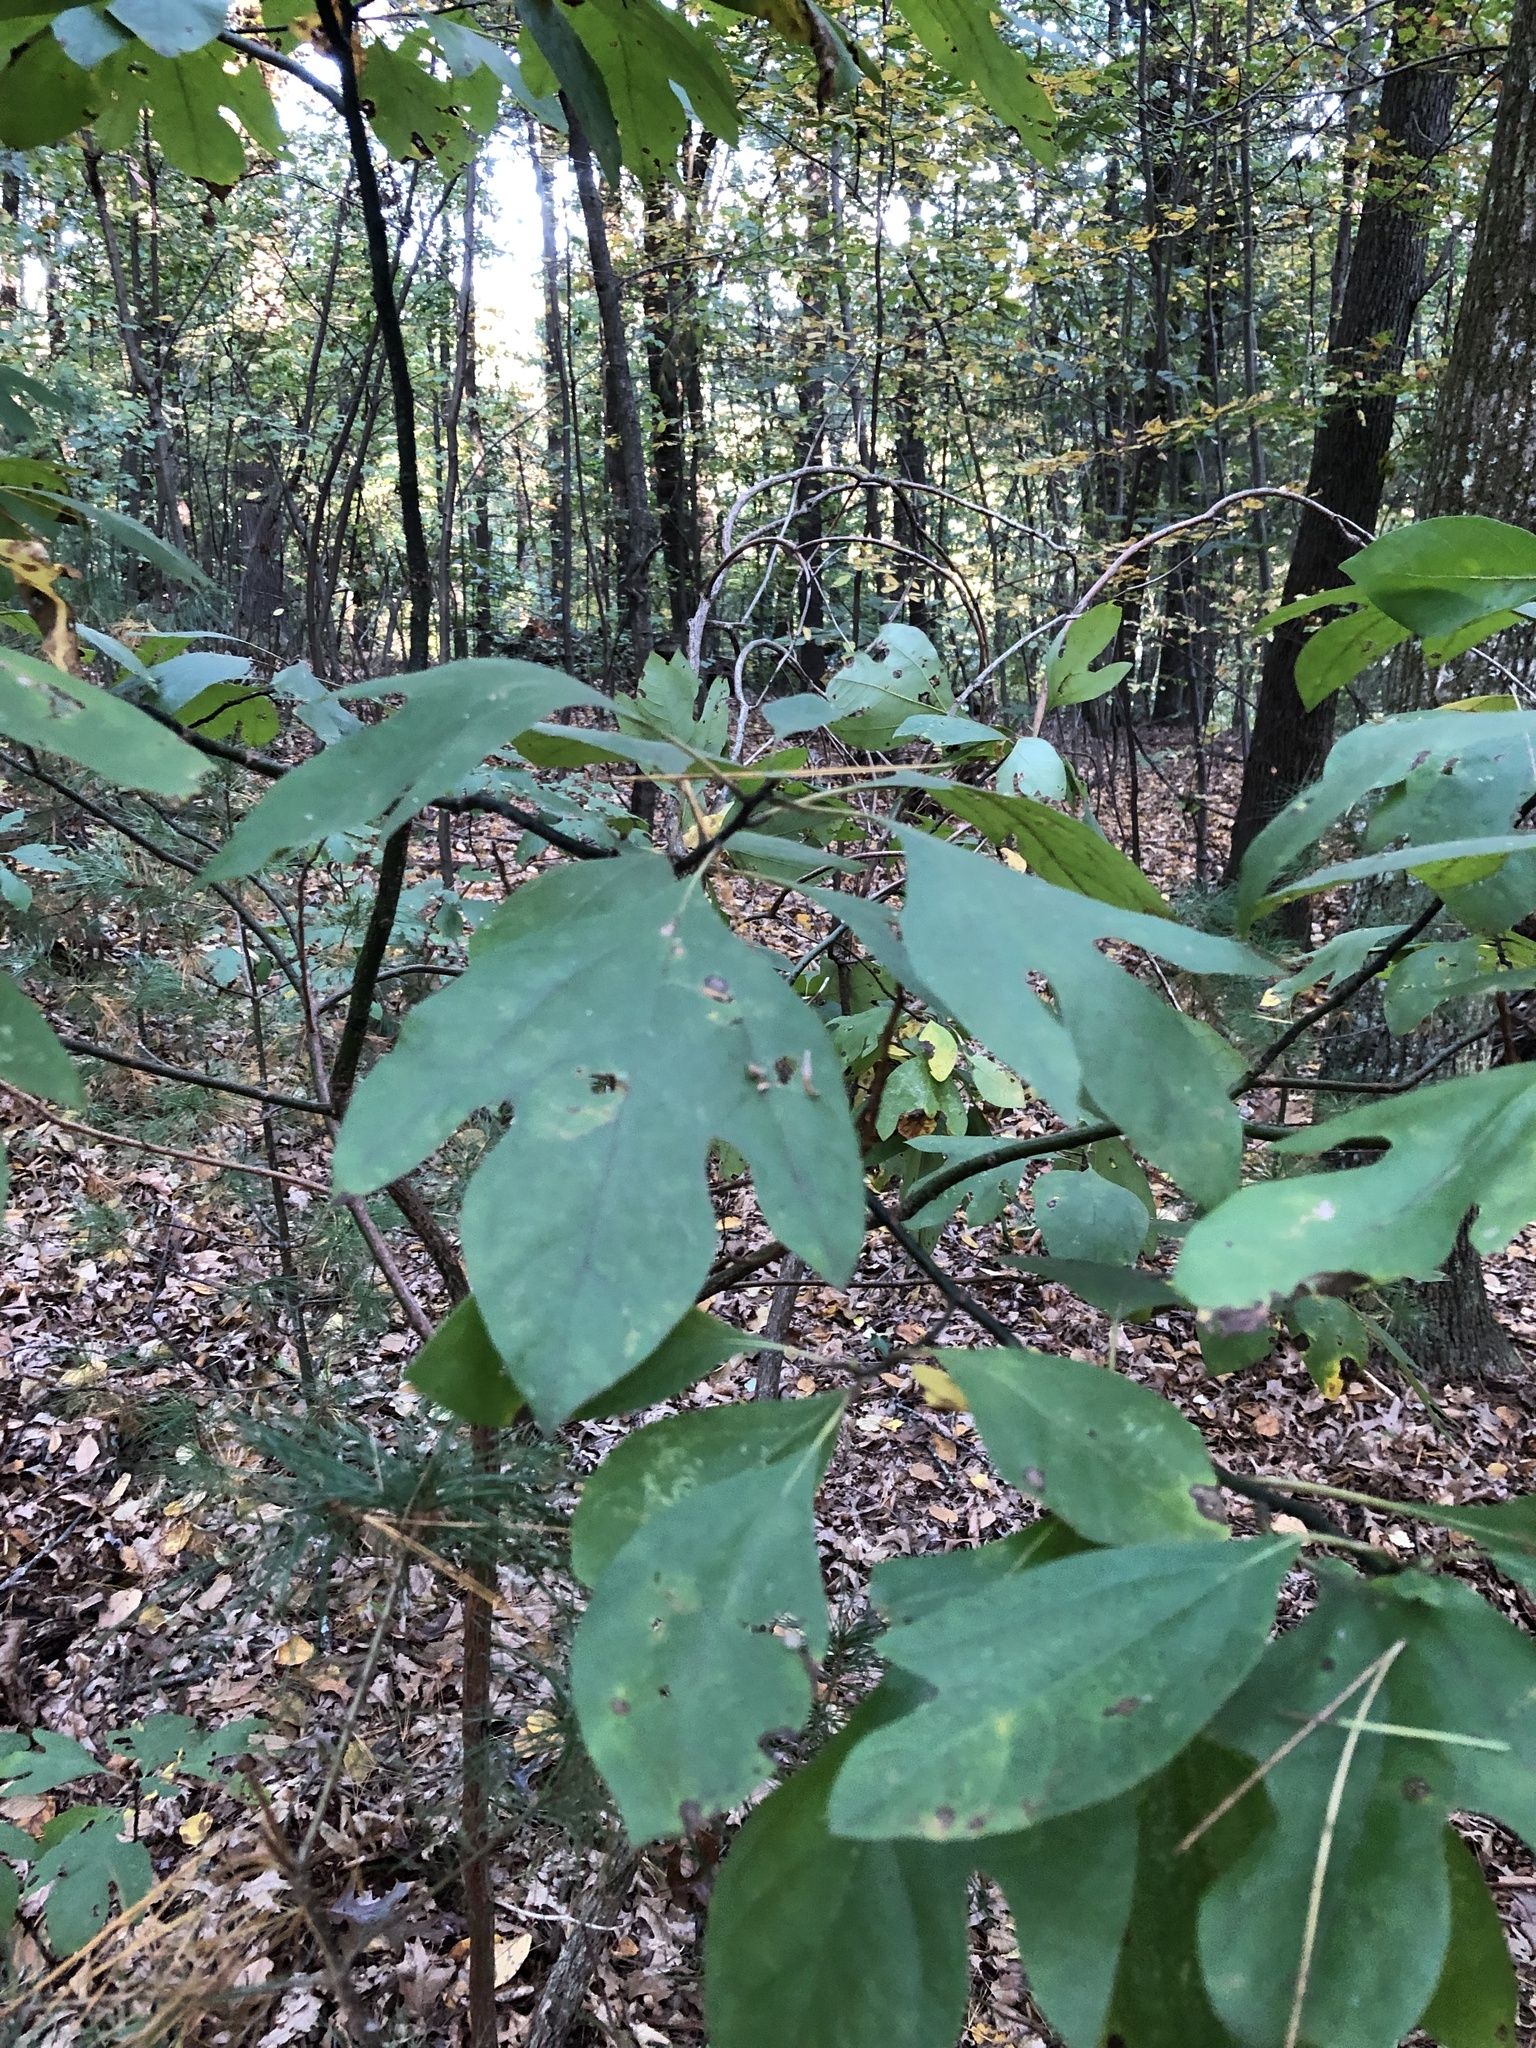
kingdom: Plantae
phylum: Tracheophyta
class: Magnoliopsida
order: Laurales
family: Lauraceae
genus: Sassafras
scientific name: Sassafras albidum
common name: Sassafras
